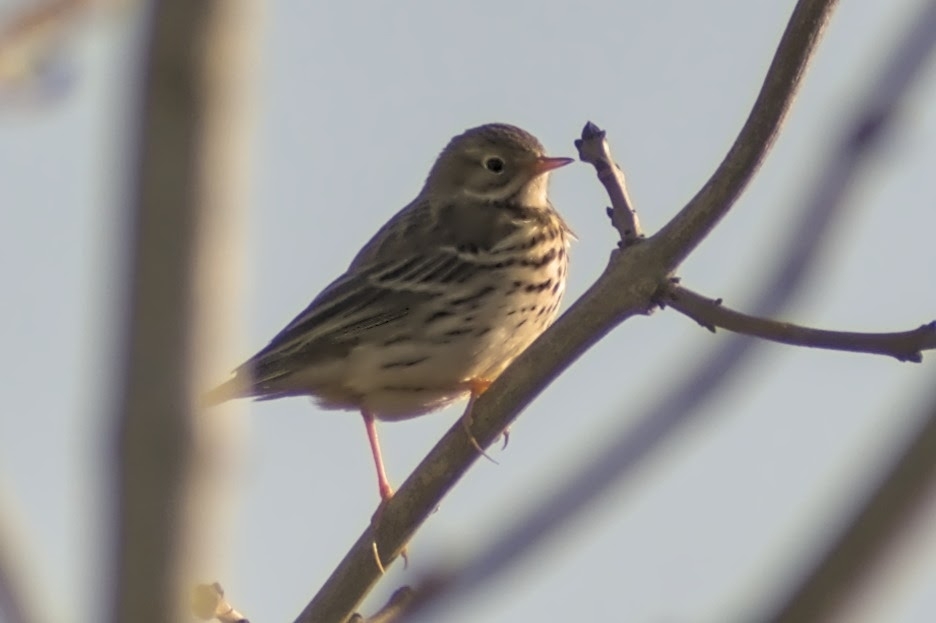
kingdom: Animalia
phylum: Chordata
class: Aves
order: Passeriformes
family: Motacillidae
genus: Anthus
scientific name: Anthus pratensis
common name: Meadow pipit
